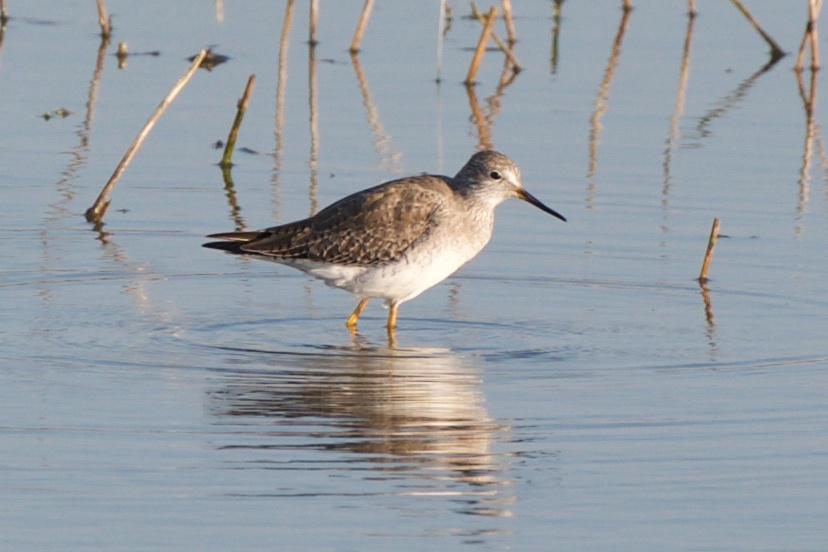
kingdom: Animalia
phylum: Chordata
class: Aves
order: Charadriiformes
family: Scolopacidae
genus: Tringa
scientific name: Tringa flavipes
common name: Lesser yellowlegs
